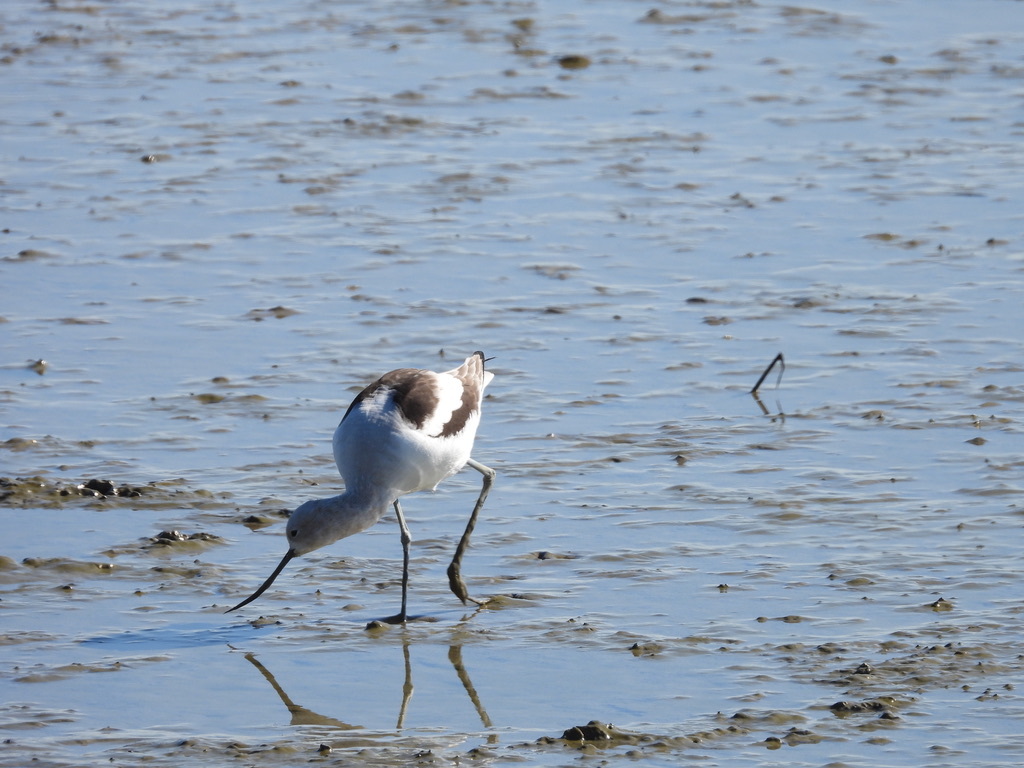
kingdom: Animalia
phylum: Chordata
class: Aves
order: Charadriiformes
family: Recurvirostridae
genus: Recurvirostra
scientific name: Recurvirostra americana
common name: American avocet
